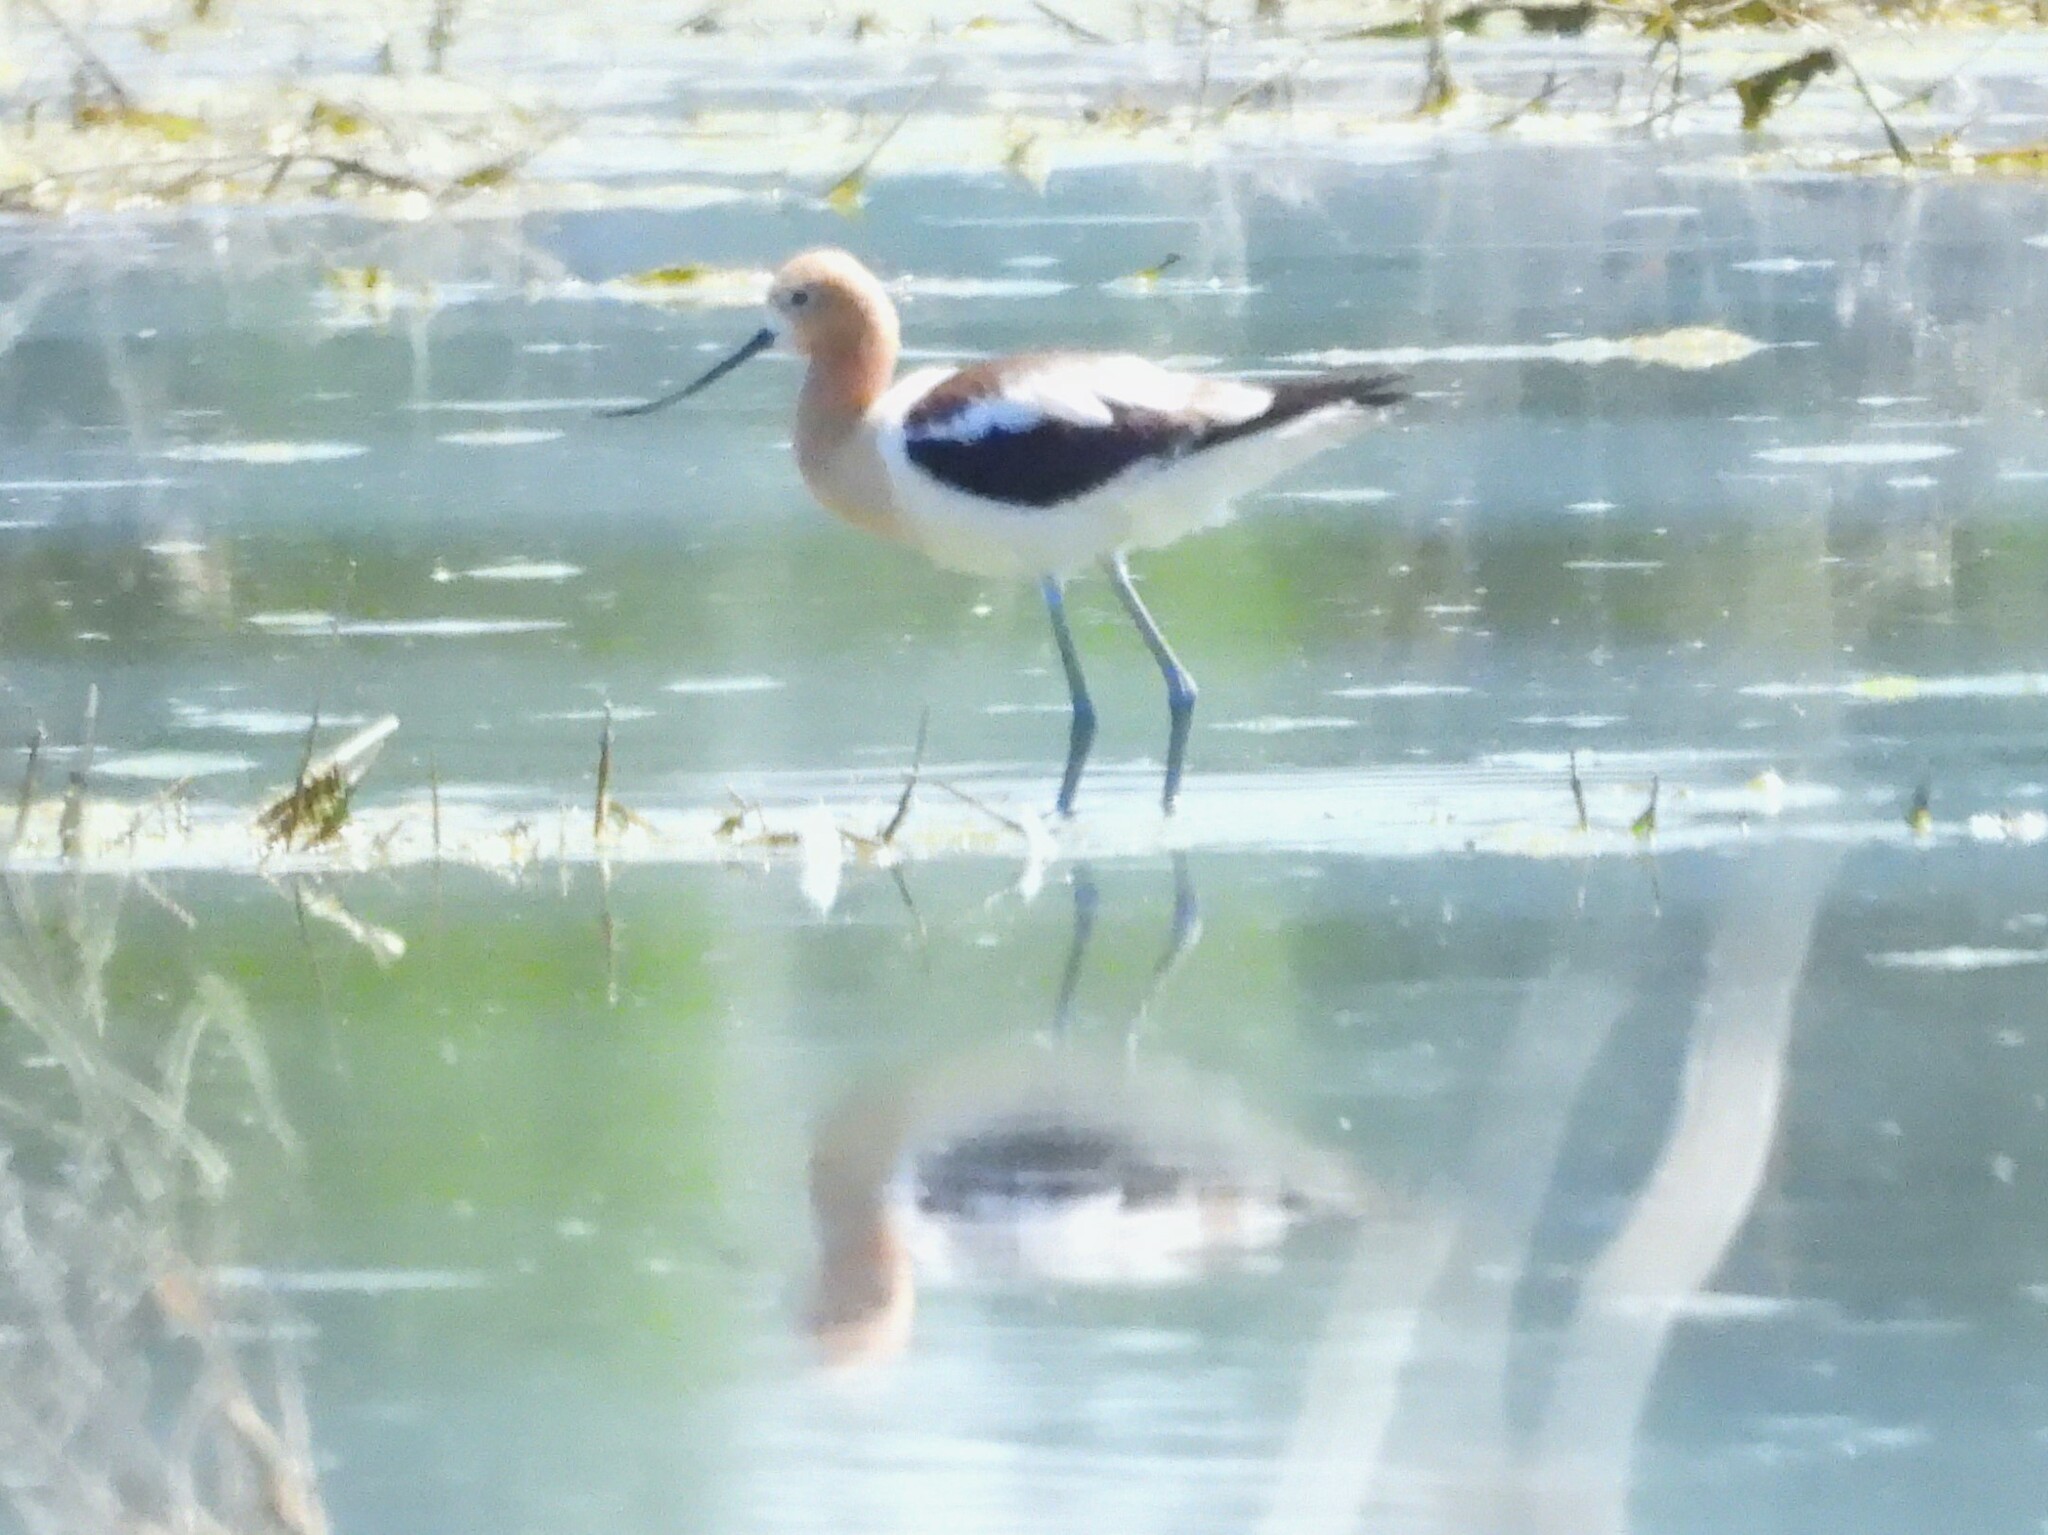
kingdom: Animalia
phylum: Chordata
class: Aves
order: Charadriiformes
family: Recurvirostridae
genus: Recurvirostra
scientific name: Recurvirostra americana
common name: American avocet
